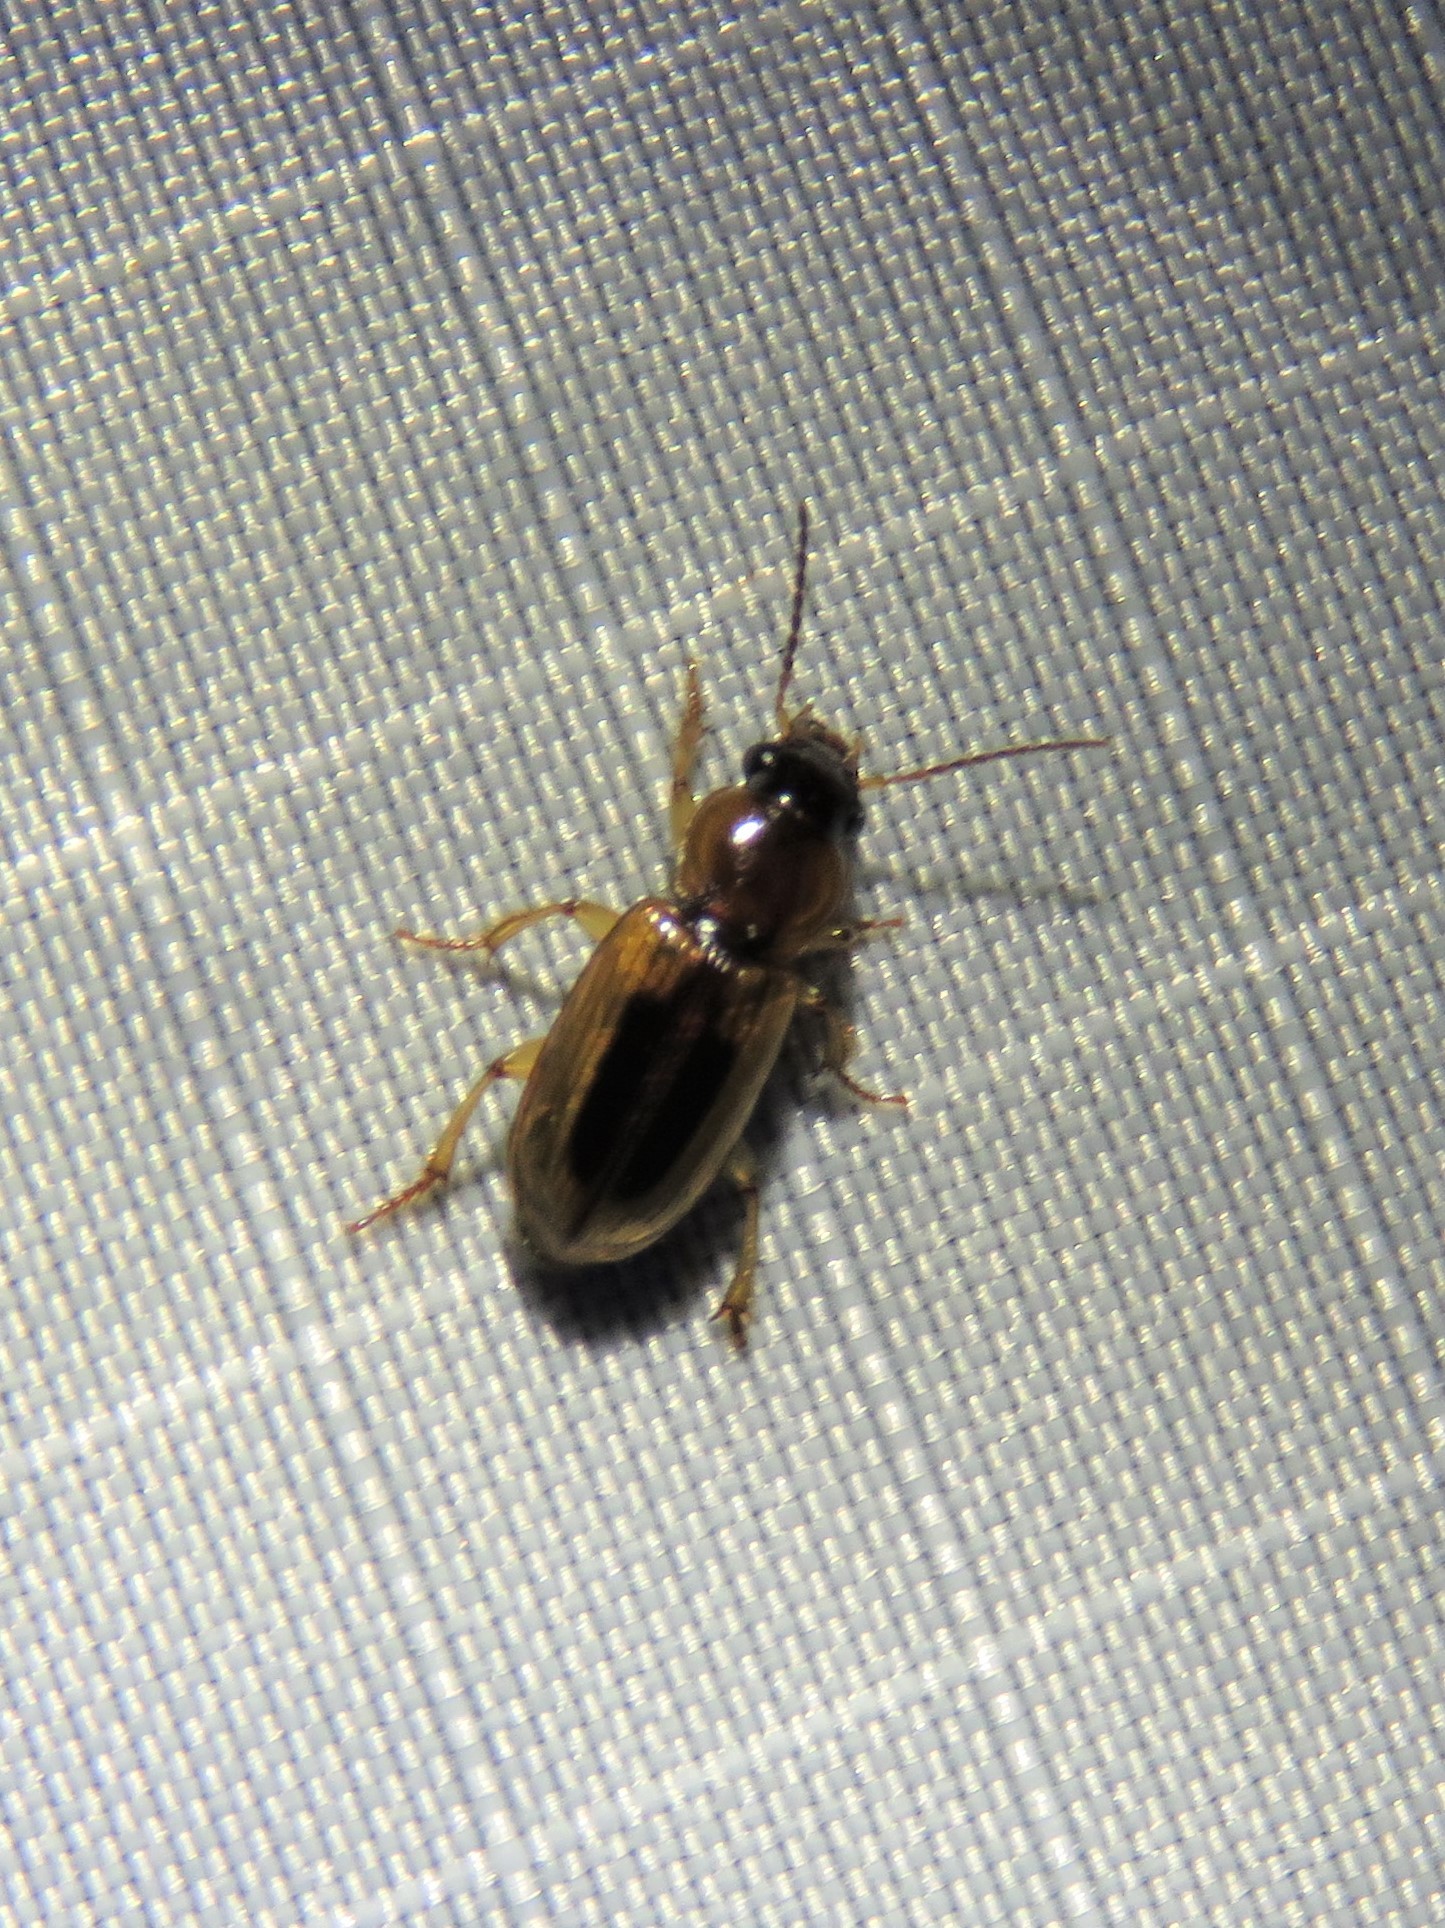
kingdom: Animalia
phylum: Arthropoda
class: Insecta
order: Coleoptera
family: Carabidae
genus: Stenolophus
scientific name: Stenolophus lecontei
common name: Leconte's seedcorn beetle
